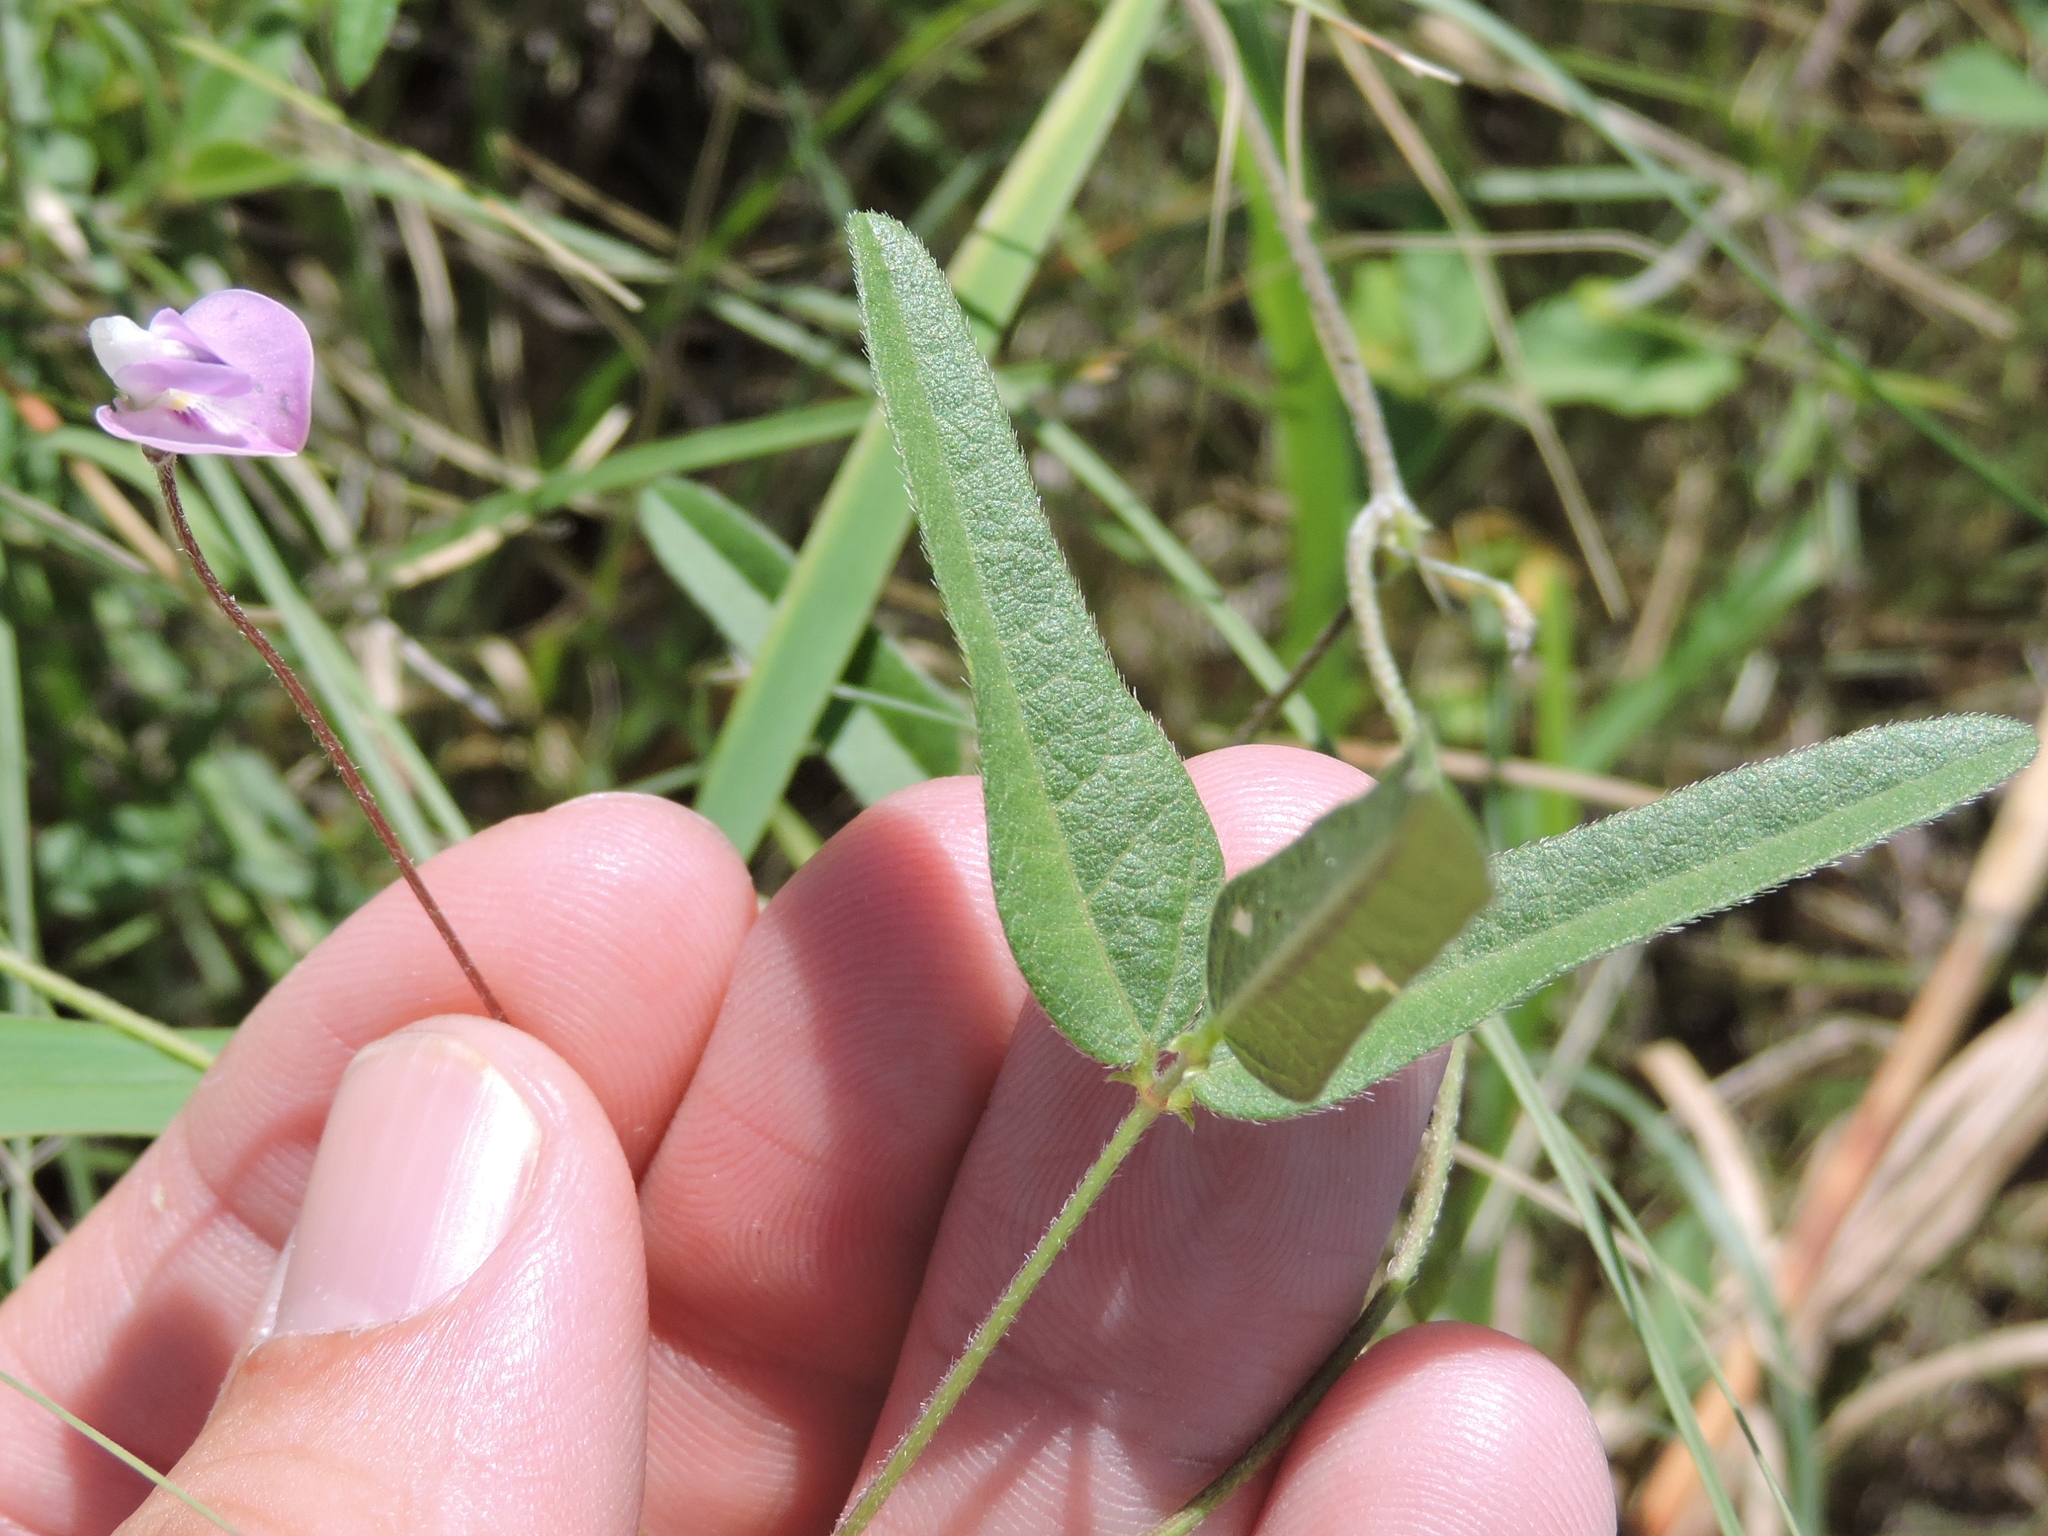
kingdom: Plantae
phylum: Tracheophyta
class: Magnoliopsida
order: Fabales
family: Fabaceae
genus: Strophostyles
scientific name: Strophostyles leiosperma
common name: Smooth-seed wild bean
